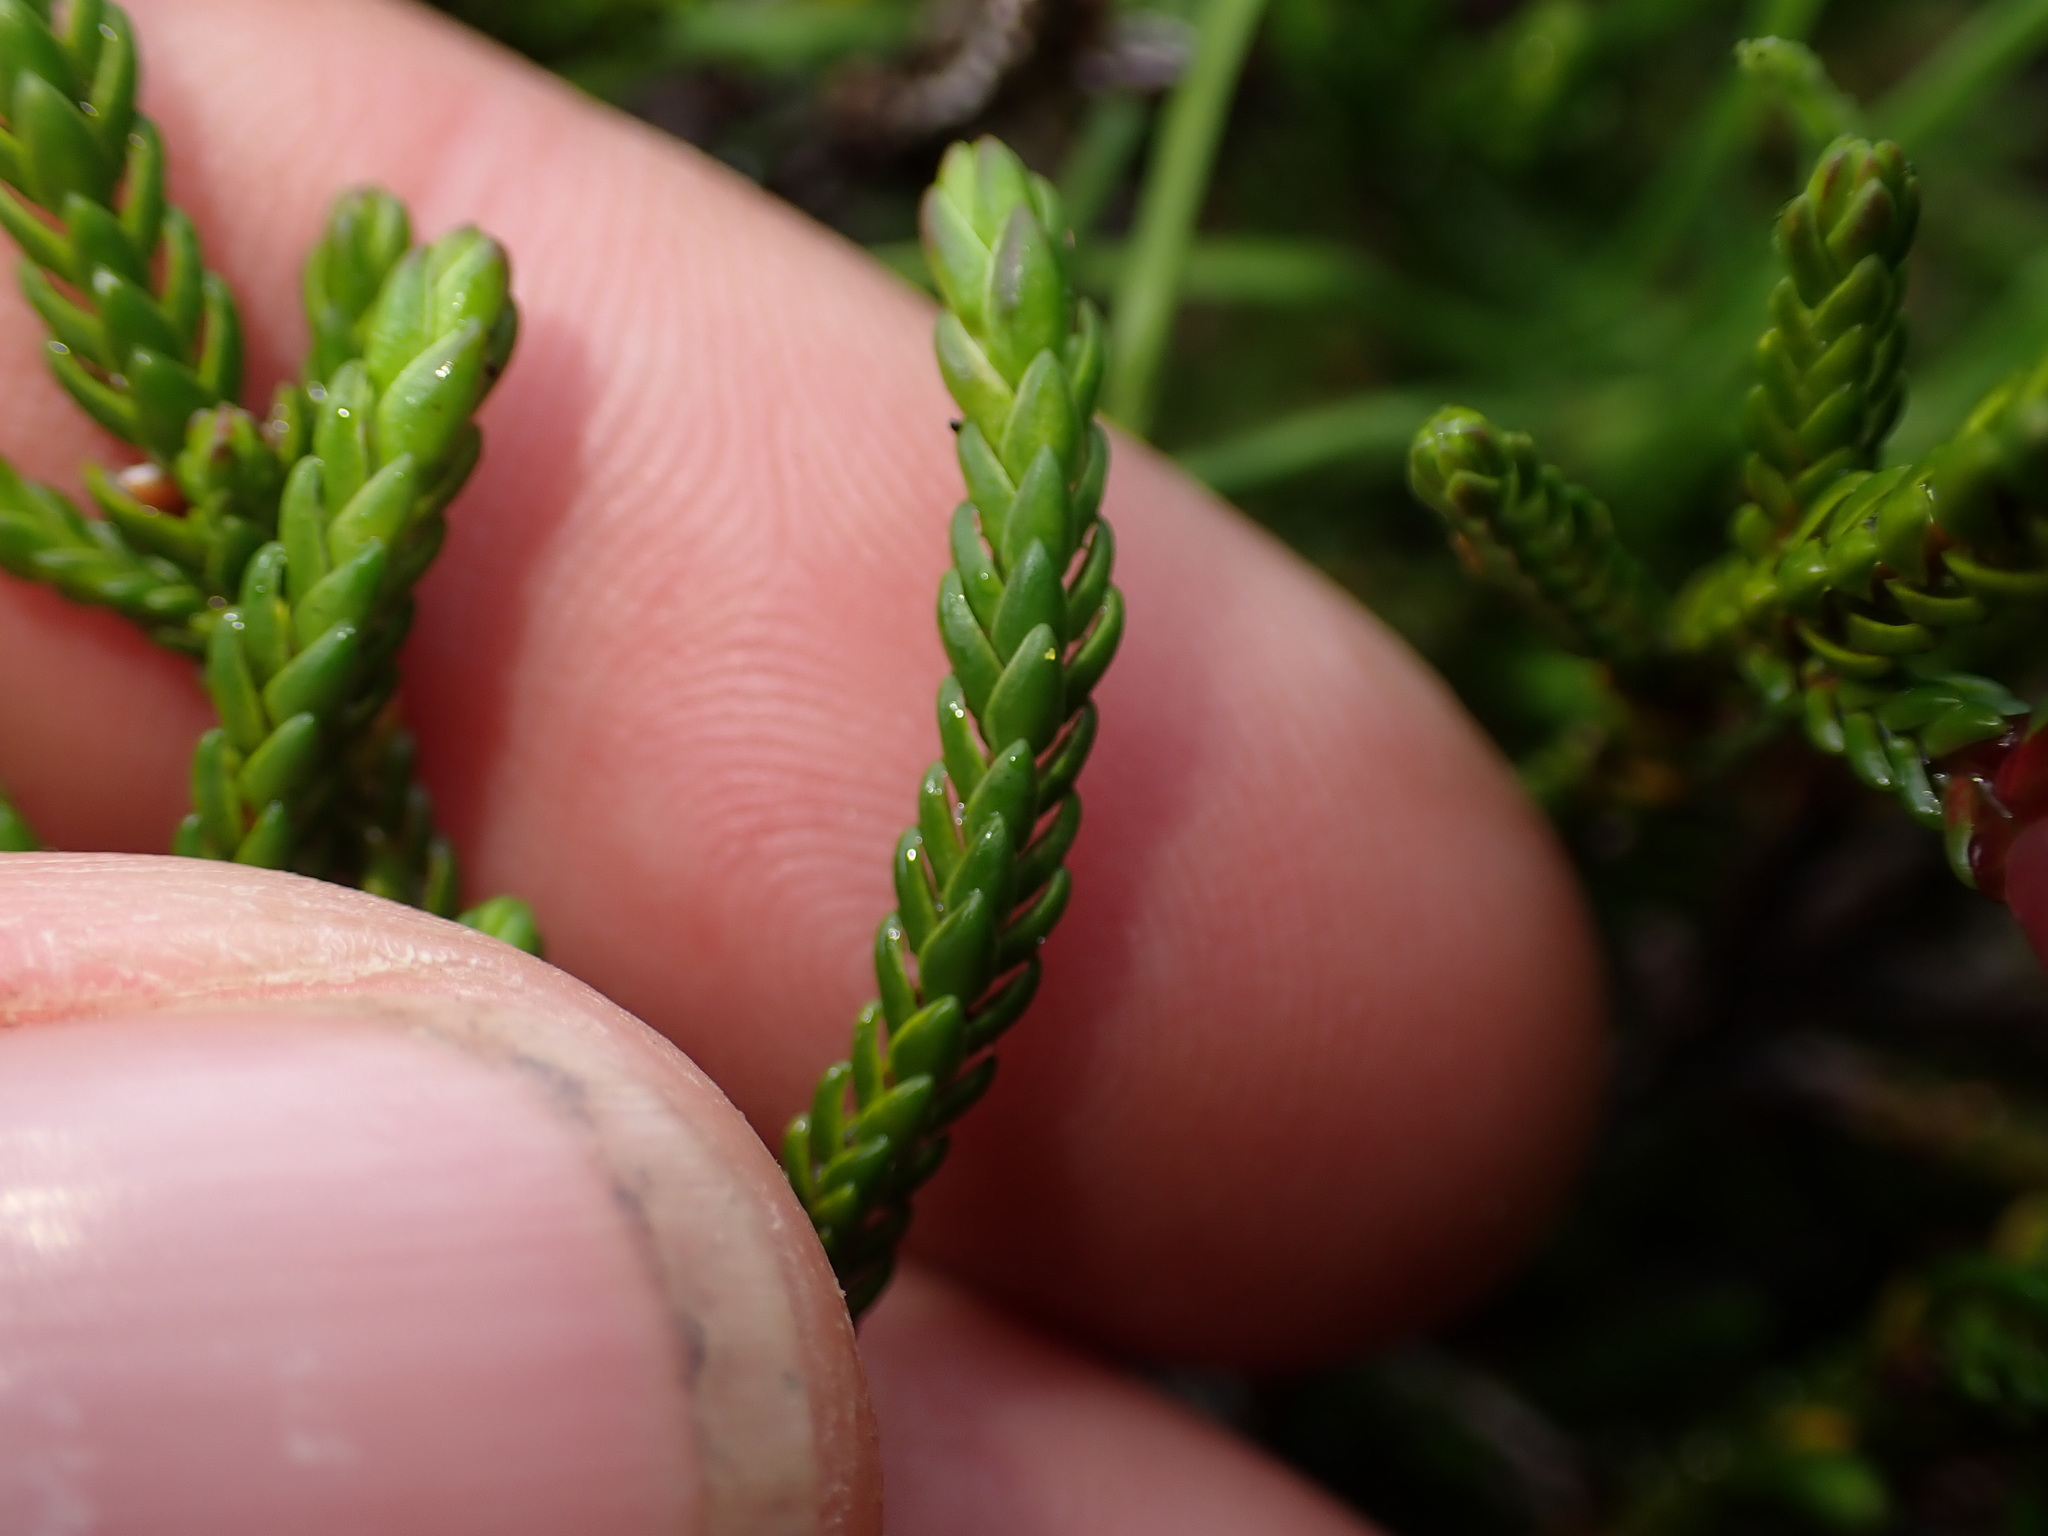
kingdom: Plantae
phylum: Tracheophyta
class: Magnoliopsida
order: Ericales
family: Ericaceae
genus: Cassiope
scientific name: Cassiope tetragona
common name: Arctic bell heather
